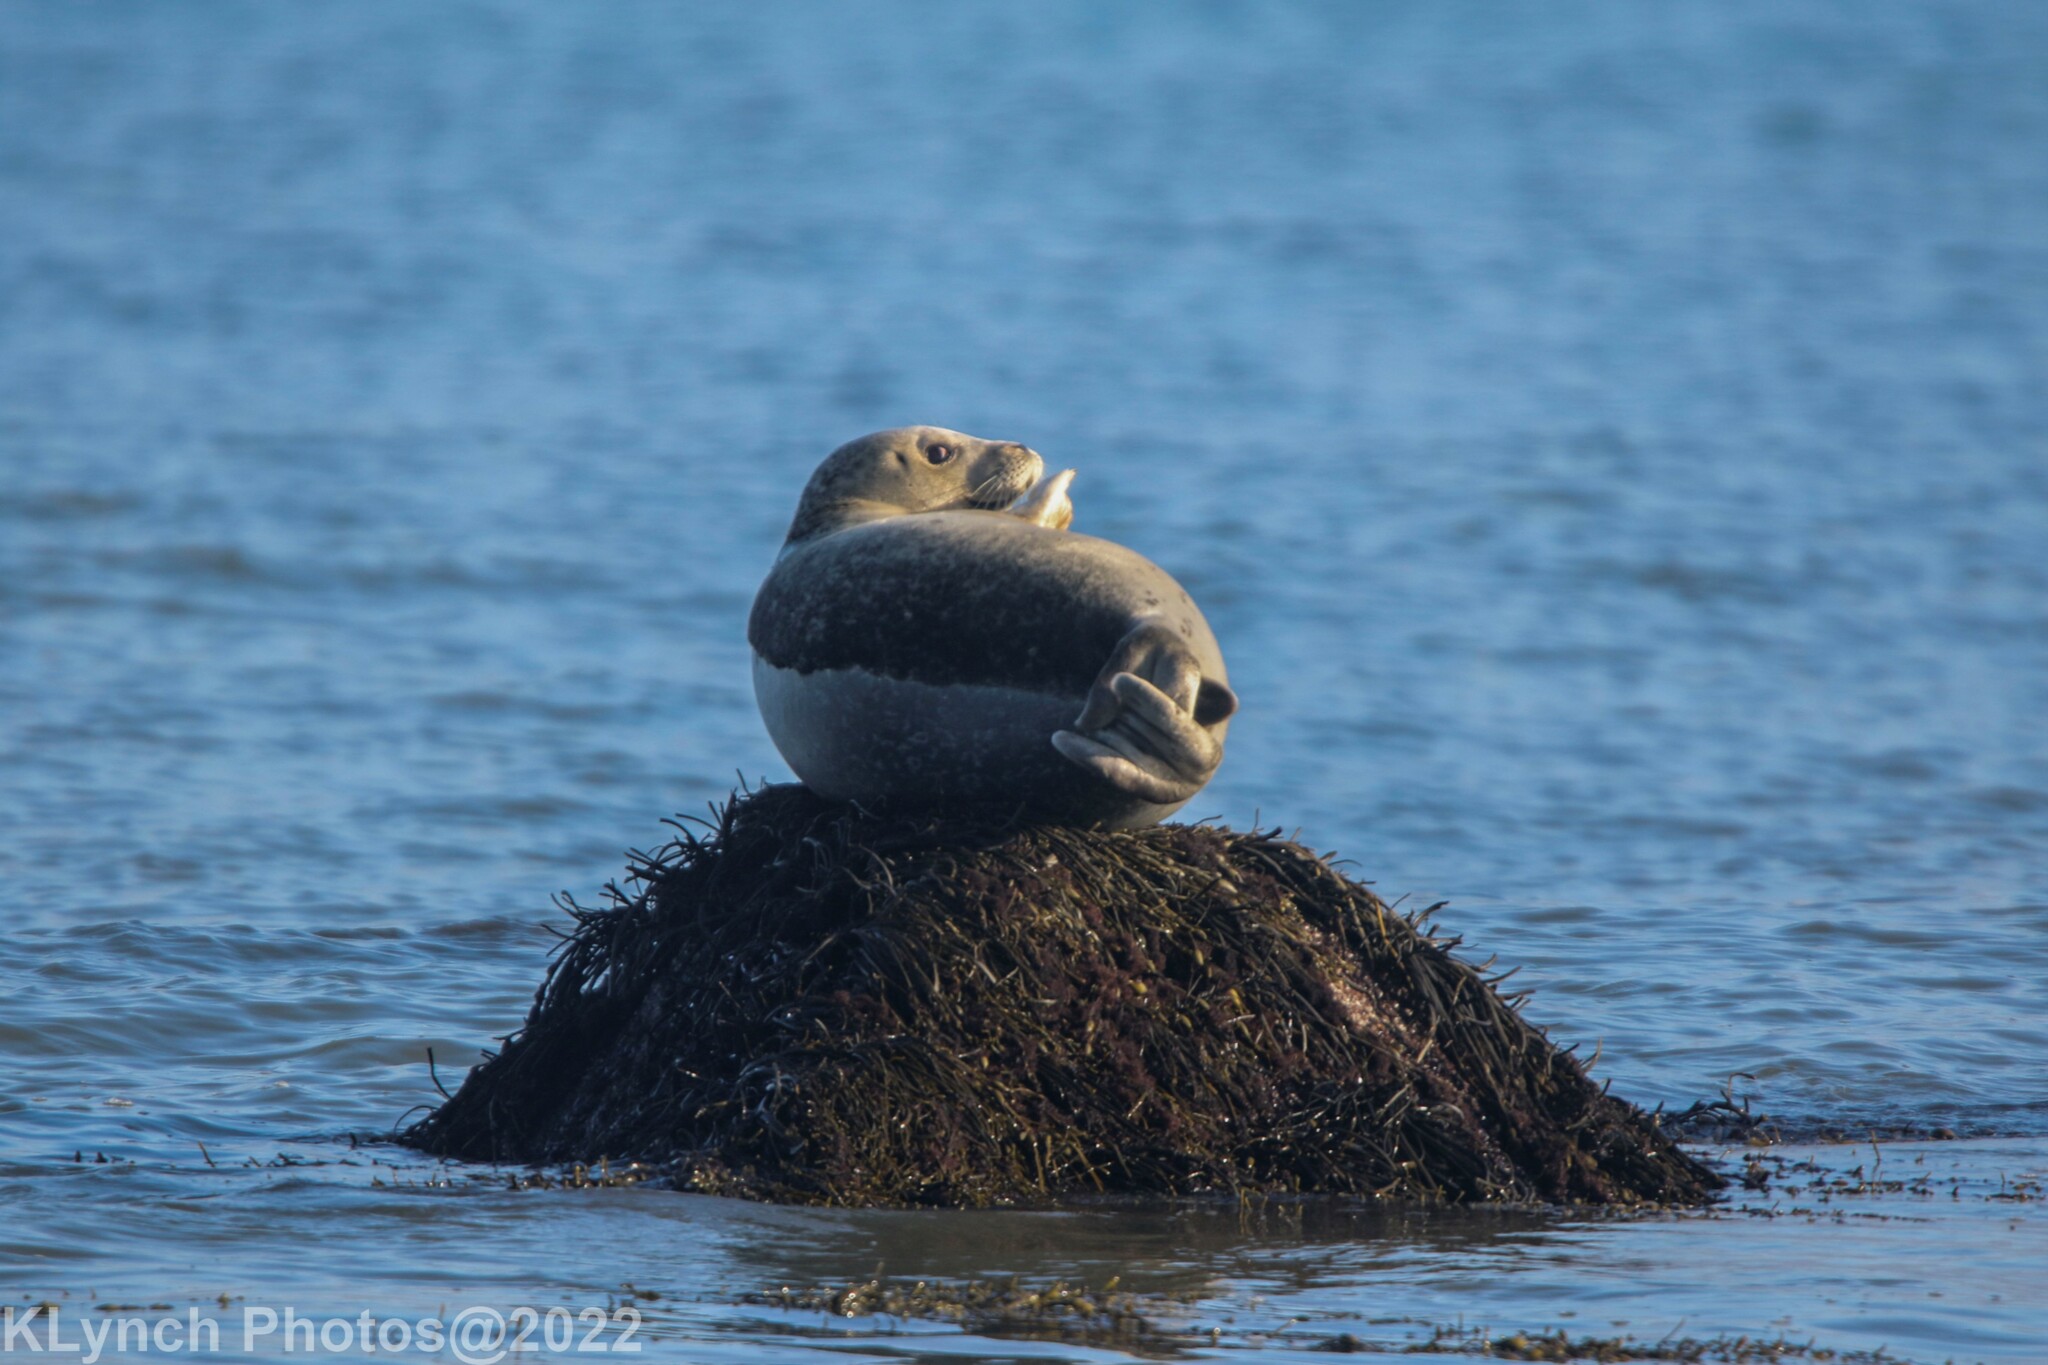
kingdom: Animalia
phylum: Chordata
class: Mammalia
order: Carnivora
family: Phocidae
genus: Phoca
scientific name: Phoca vitulina
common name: Harbor seal
